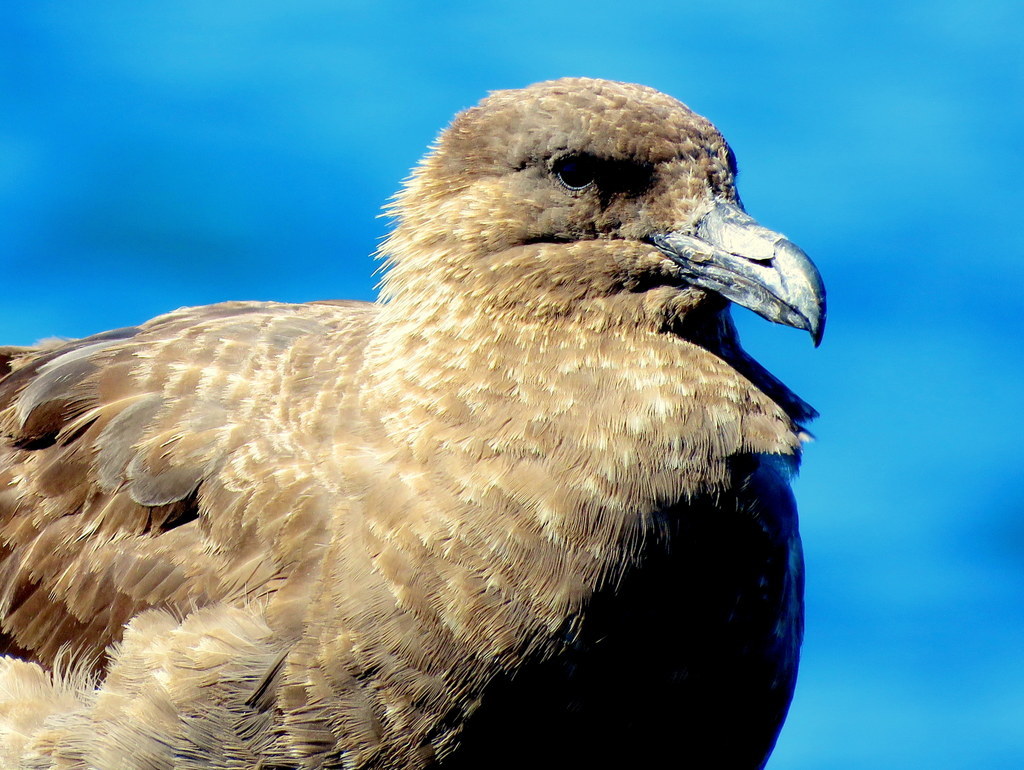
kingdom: Animalia
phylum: Chordata
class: Aves
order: Charadriiformes
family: Stercorariidae
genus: Stercorarius
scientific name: Stercorarius antarcticus
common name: Brown skua
